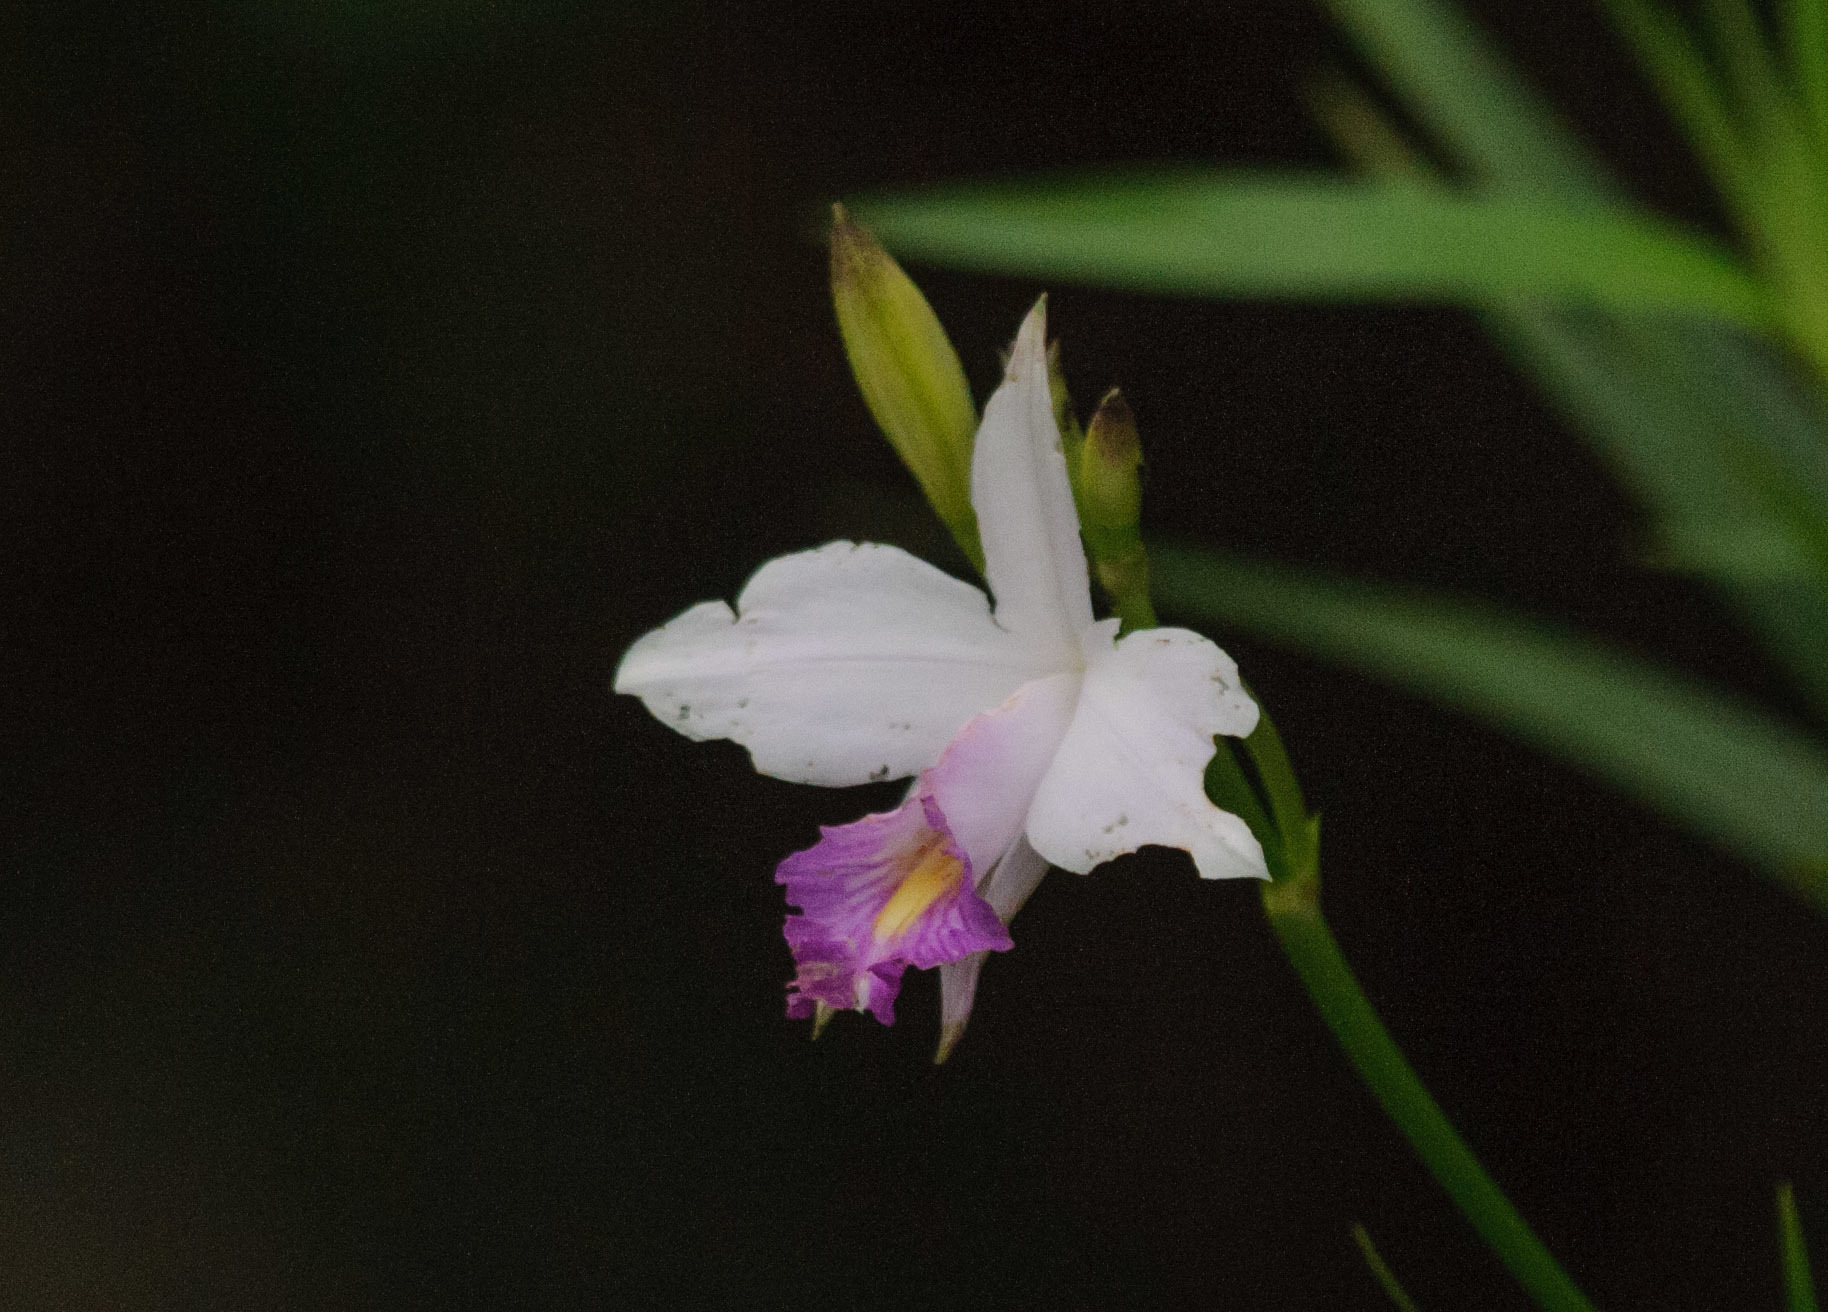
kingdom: Plantae
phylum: Tracheophyta
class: Liliopsida
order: Asparagales
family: Orchidaceae
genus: Arundina
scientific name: Arundina graminifolia
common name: Bamboo orchid
